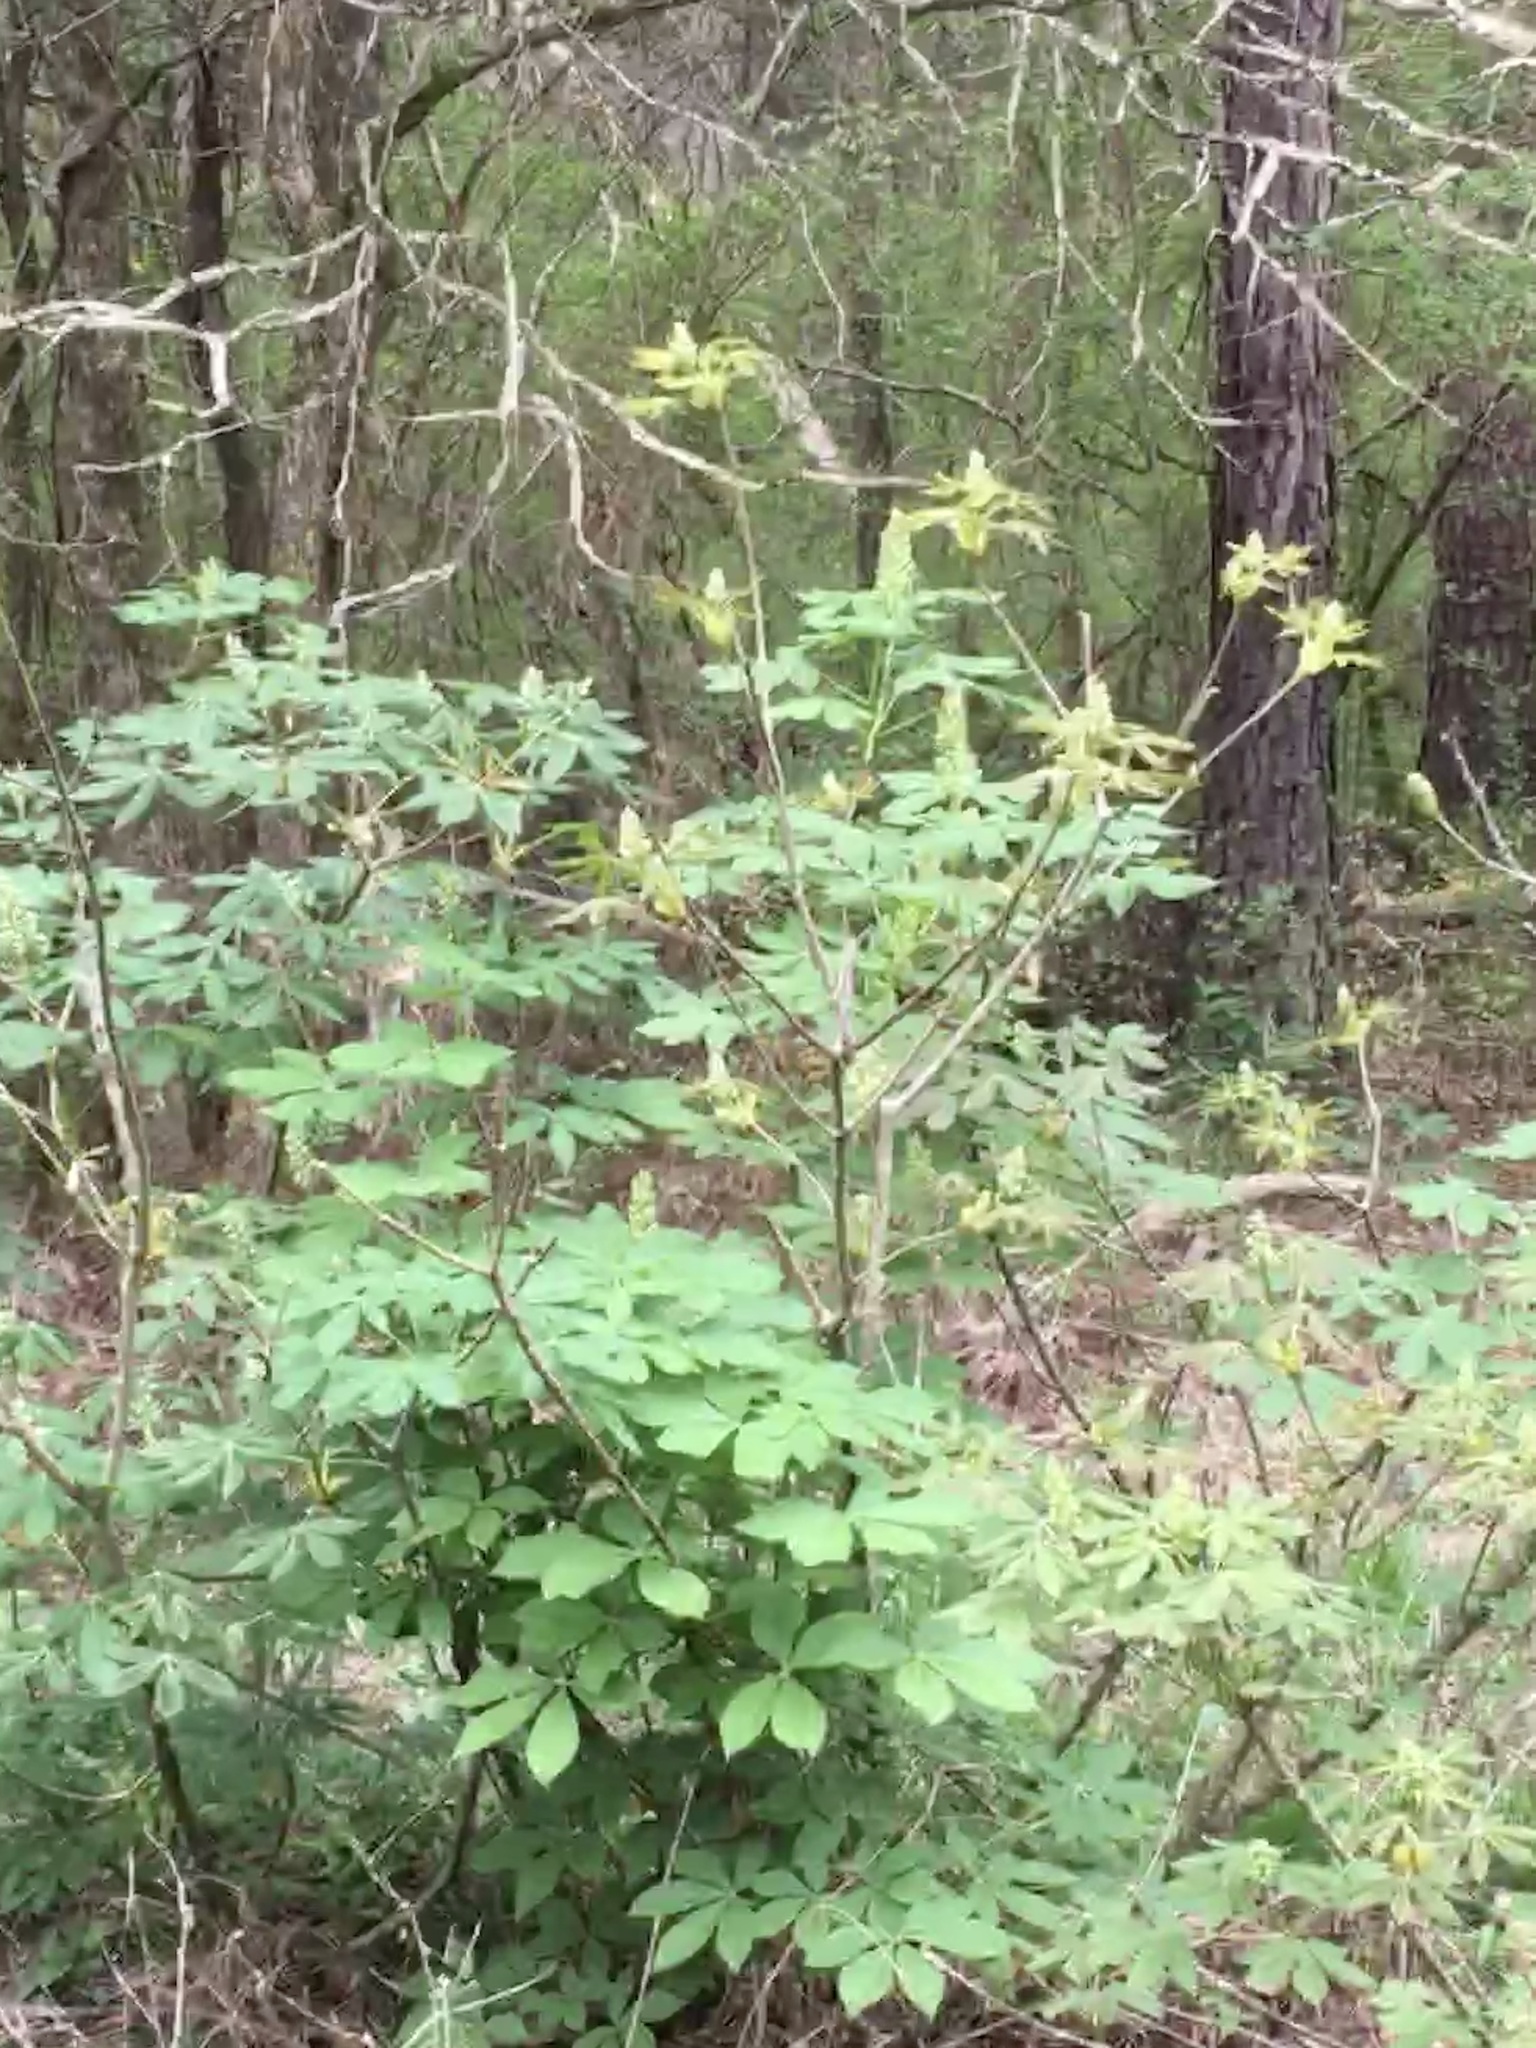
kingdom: Plantae
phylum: Tracheophyta
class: Magnoliopsida
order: Sapindales
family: Sapindaceae
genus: Aesculus
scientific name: Aesculus sylvatica
